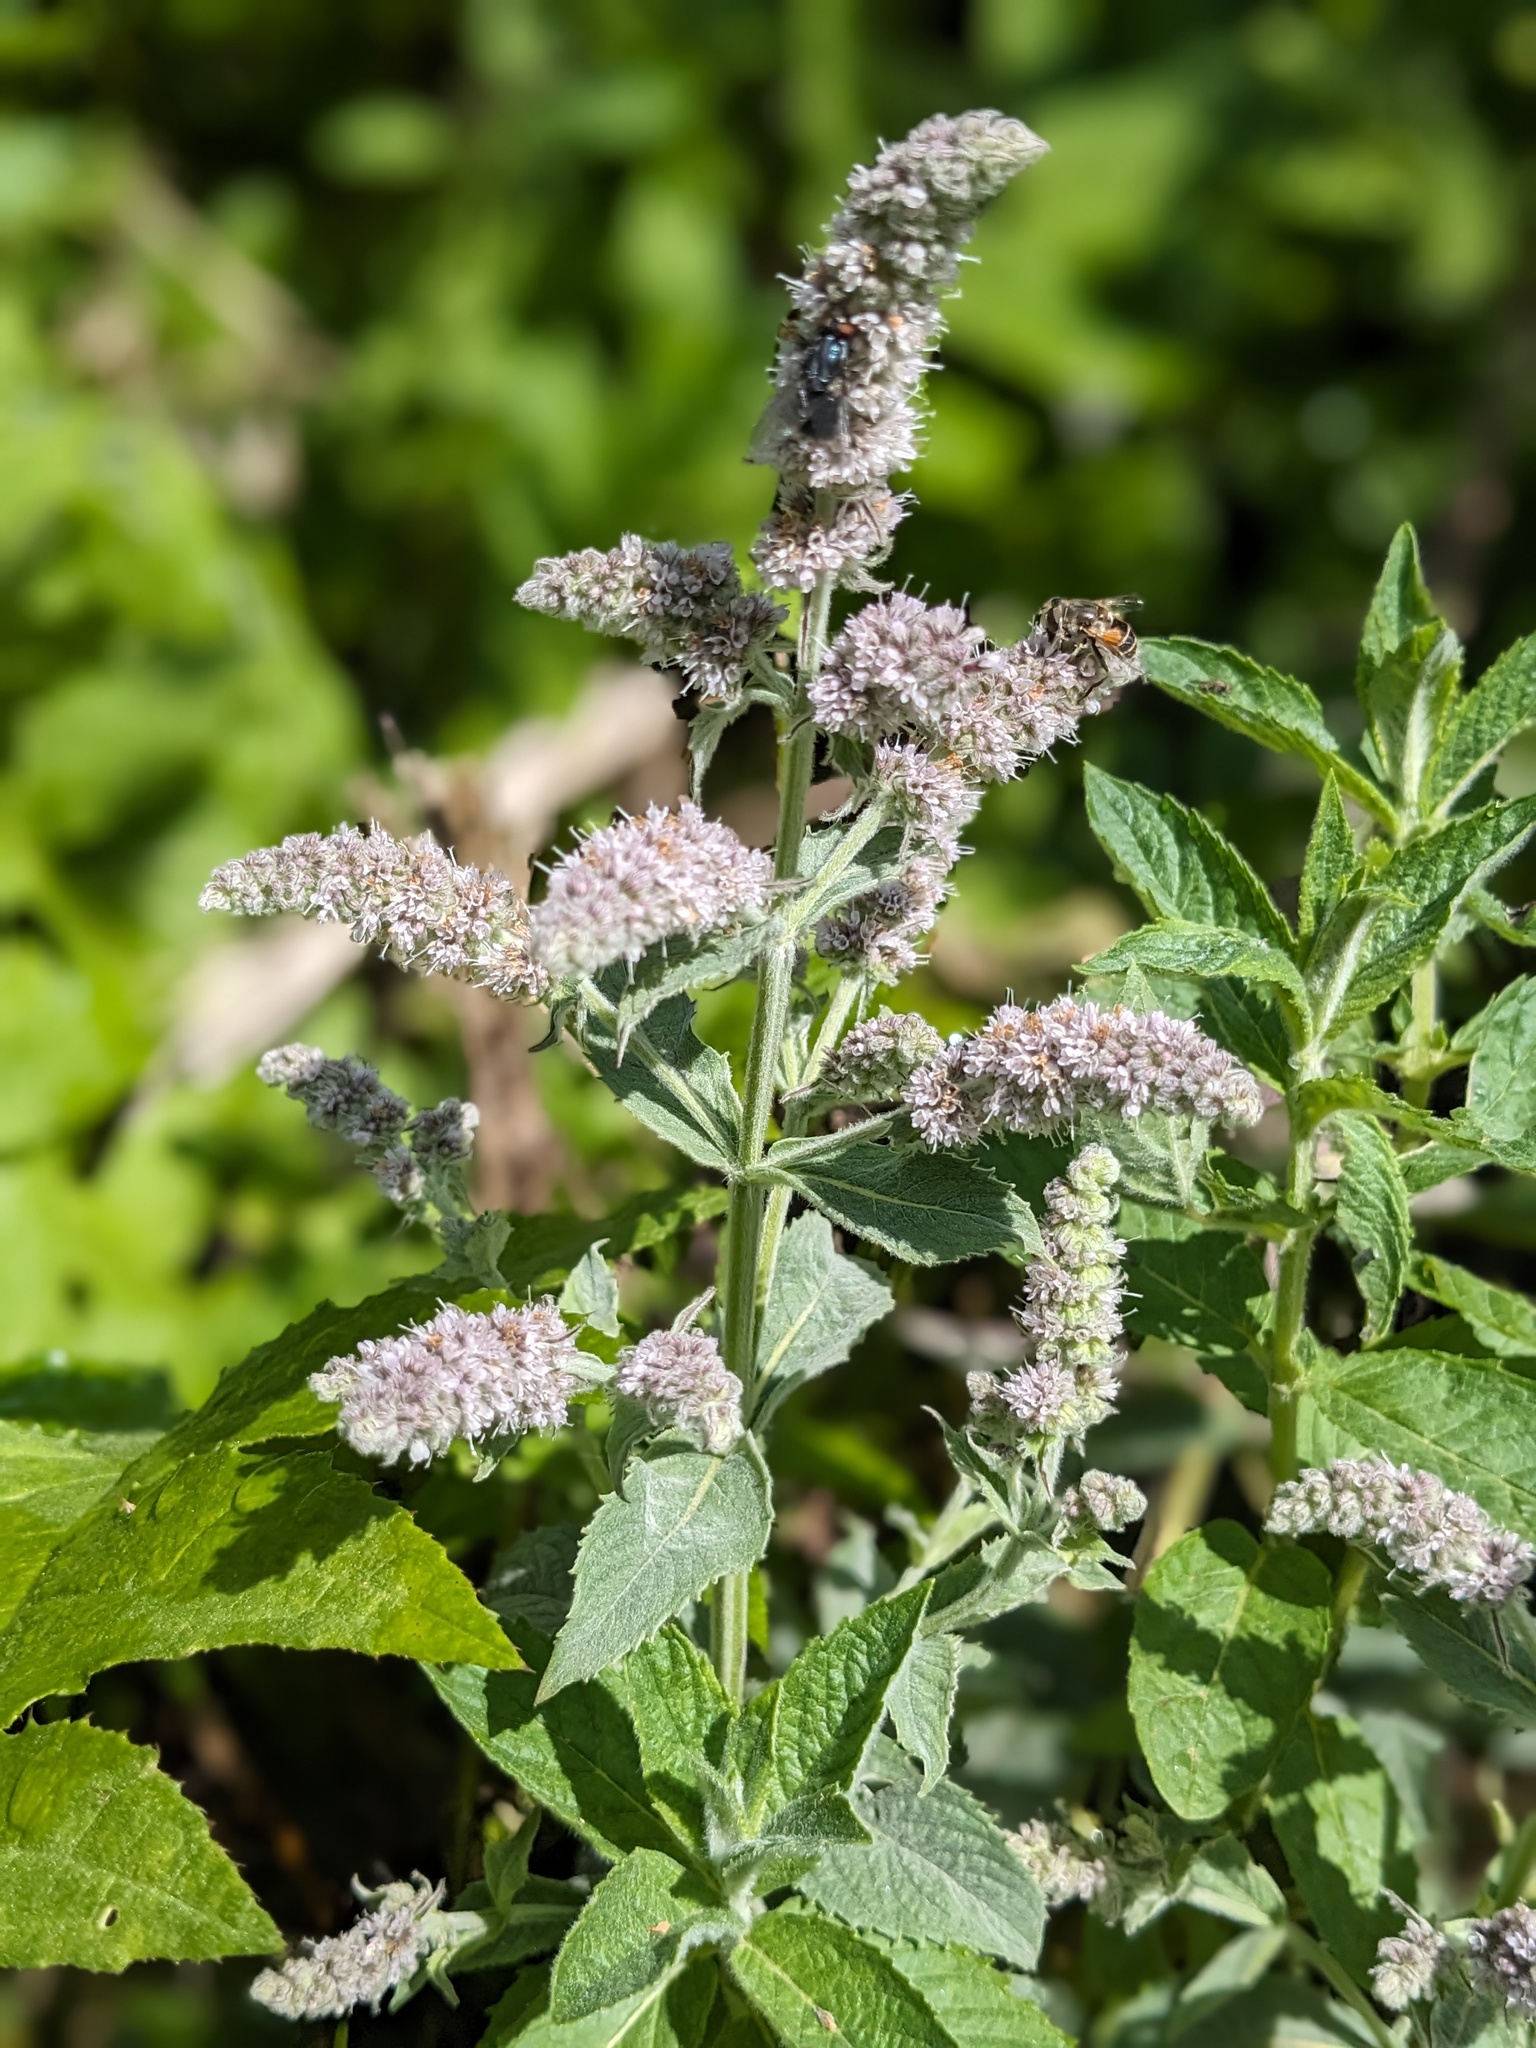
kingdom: Plantae
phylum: Tracheophyta
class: Magnoliopsida
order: Lamiales
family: Lamiaceae
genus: Mentha
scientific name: Mentha longifolia
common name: Horse mint
